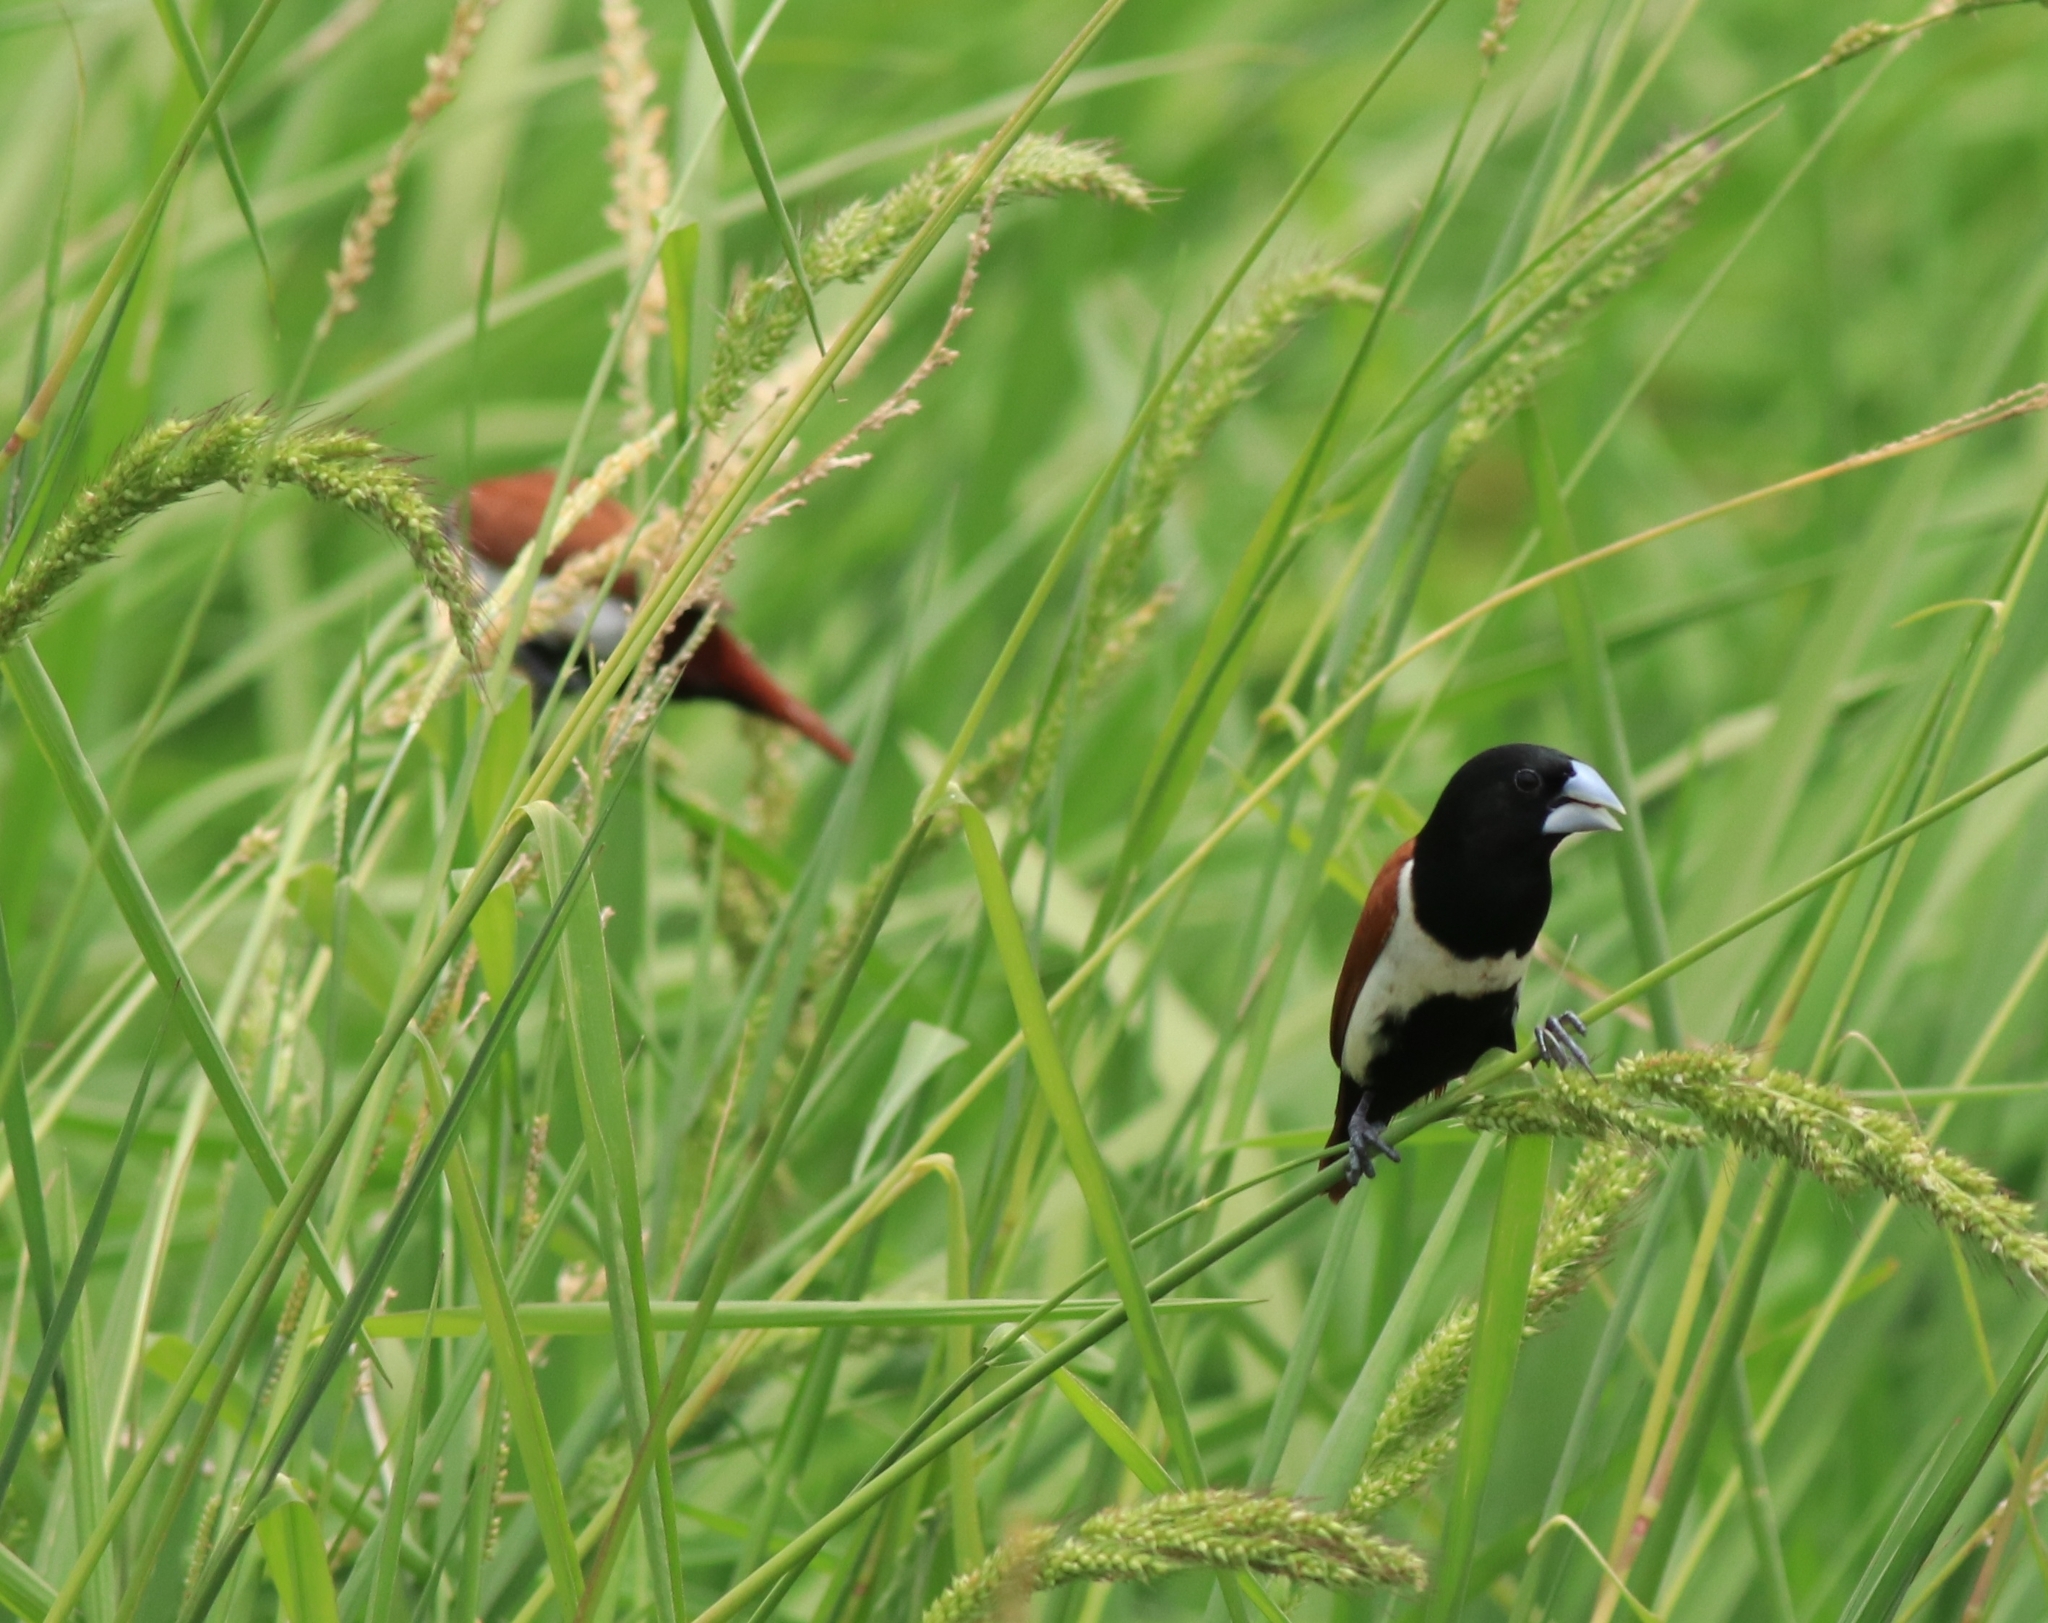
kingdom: Animalia
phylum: Chordata
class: Aves
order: Passeriformes
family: Estrildidae
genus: Lonchura
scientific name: Lonchura malacca
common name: Tricolored munia
